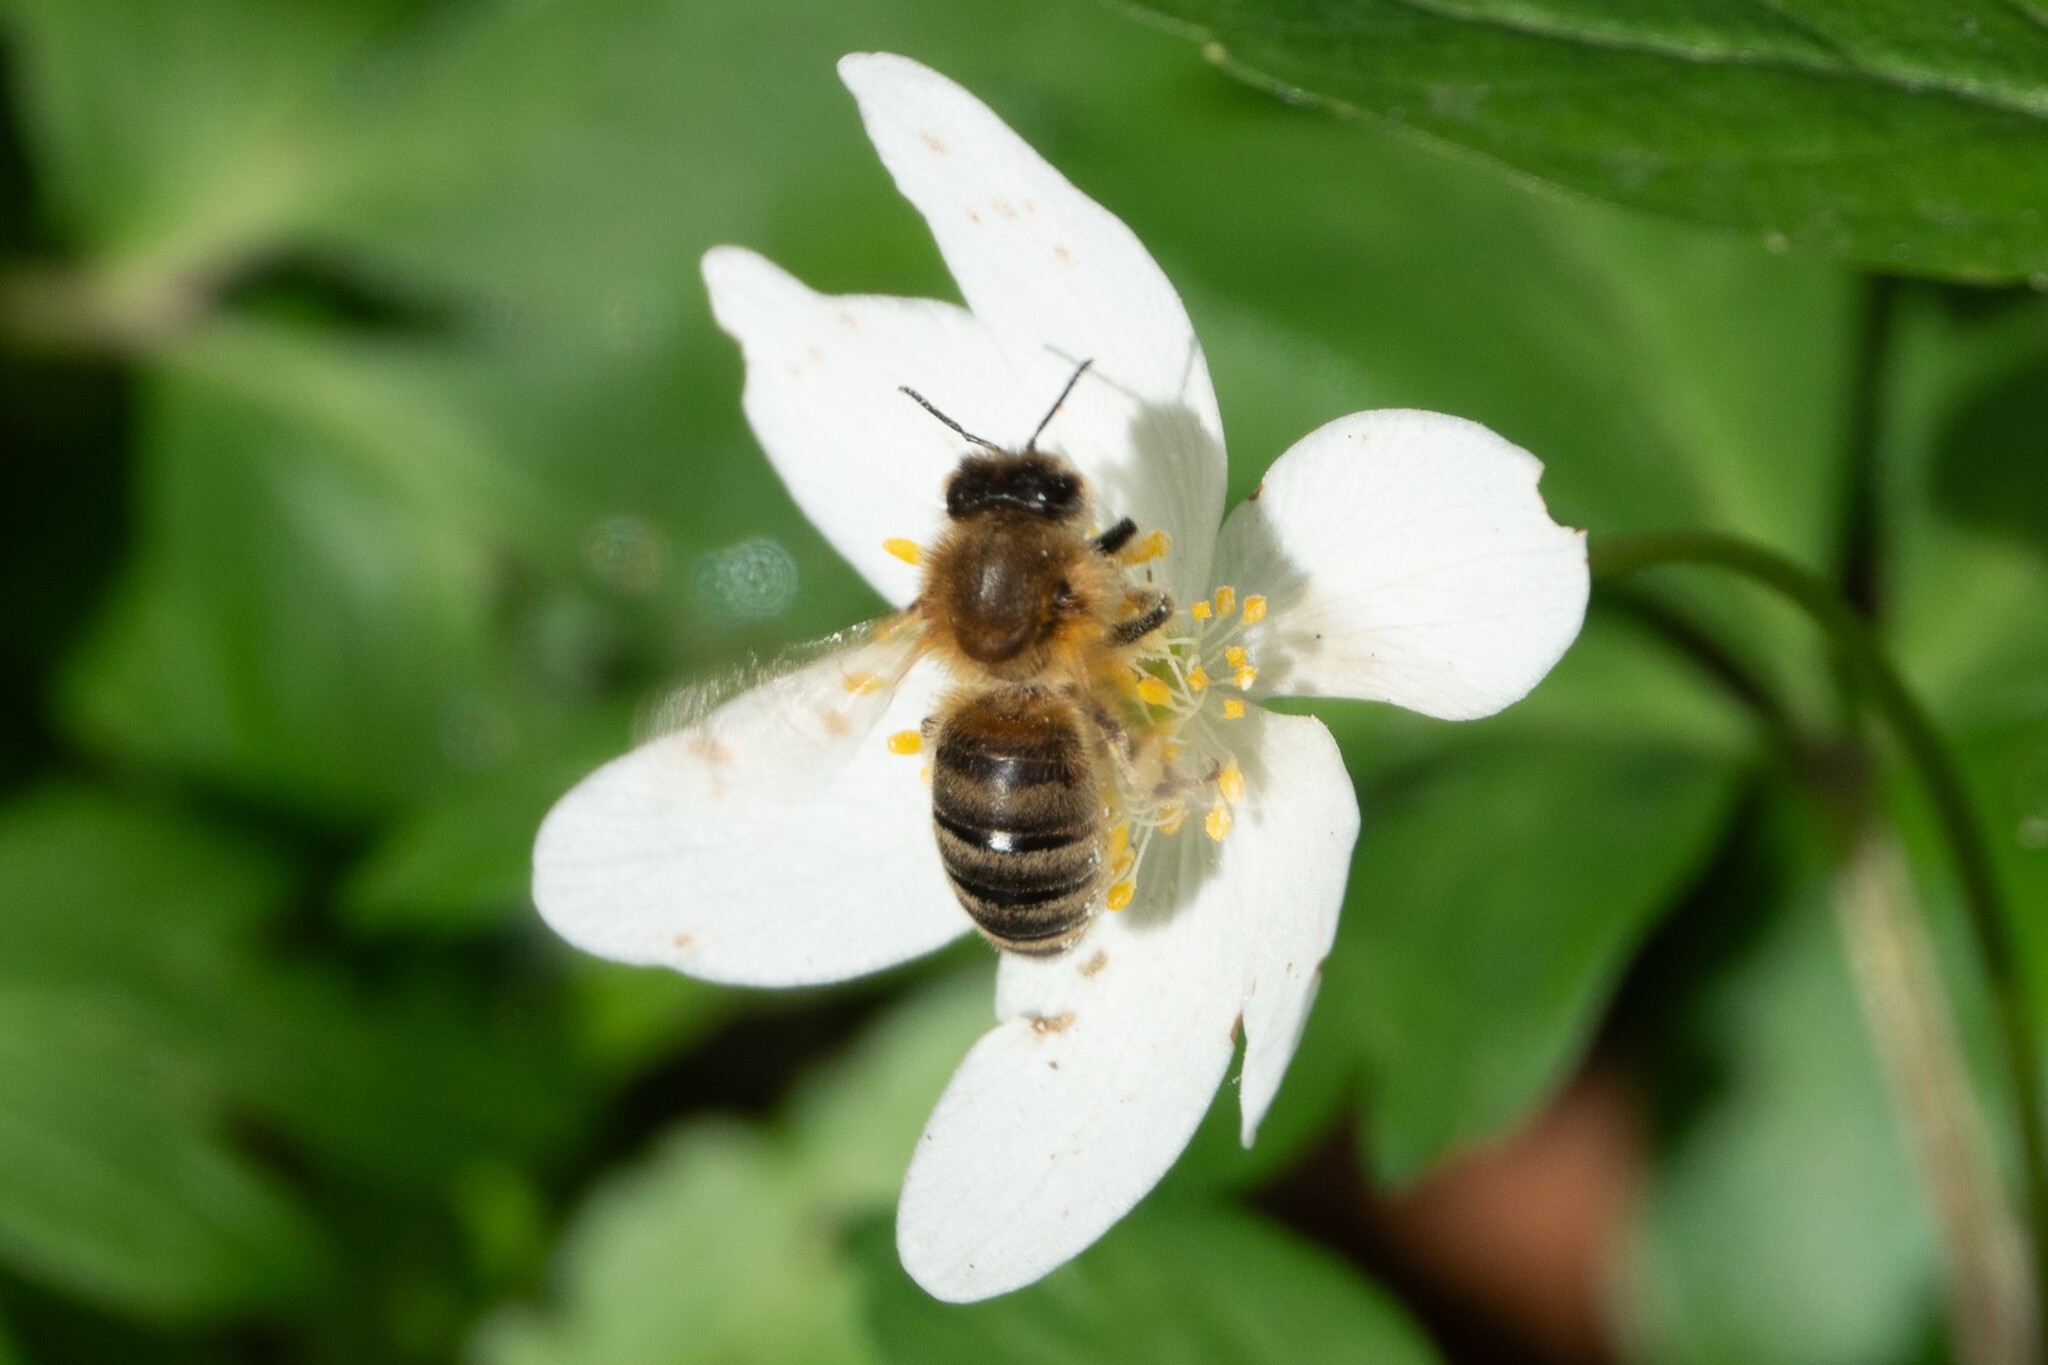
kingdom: Animalia
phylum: Arthropoda
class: Insecta
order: Hymenoptera
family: Apidae
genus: Apis
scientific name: Apis mellifera
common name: Honey bee
